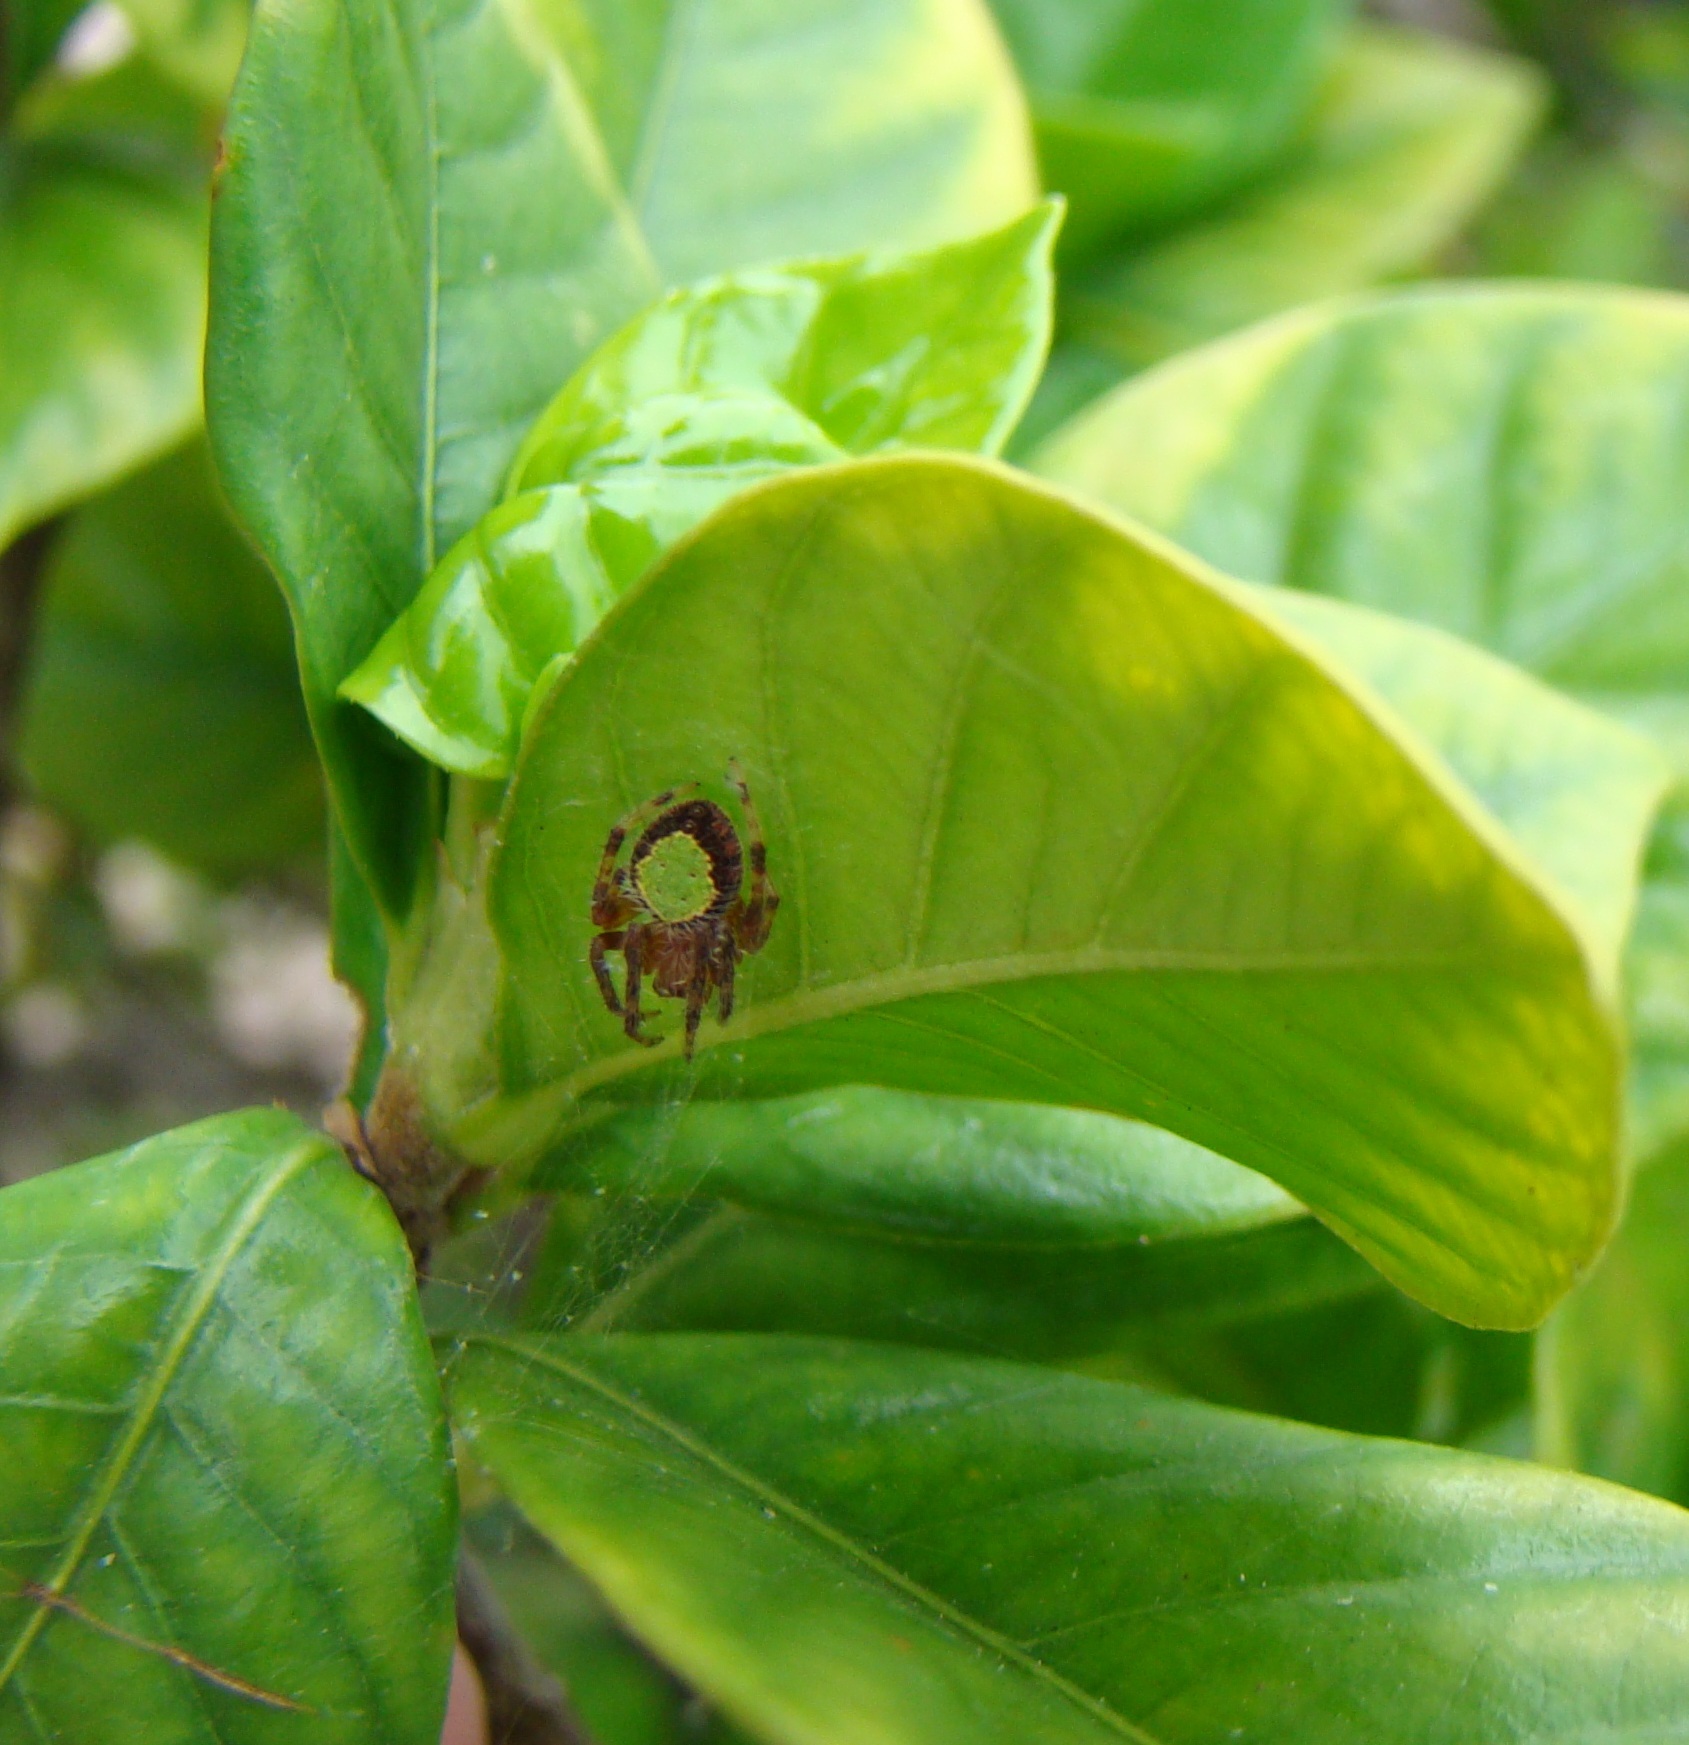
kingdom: Animalia
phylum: Arthropoda
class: Arachnida
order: Araneae
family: Araneidae
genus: Eriophora
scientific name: Eriophora ravilla
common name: Orb weavers
